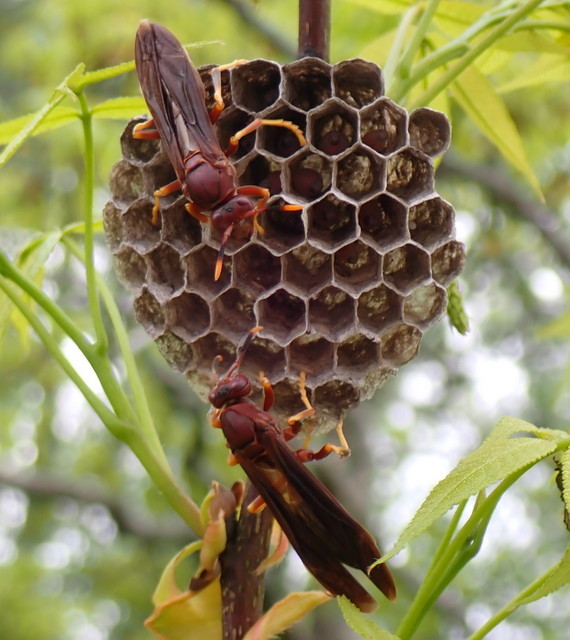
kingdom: Animalia
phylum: Arthropoda
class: Insecta
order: Hymenoptera
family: Eumenidae
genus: Polistes
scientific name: Polistes annularis
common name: Ringed paper wasp
